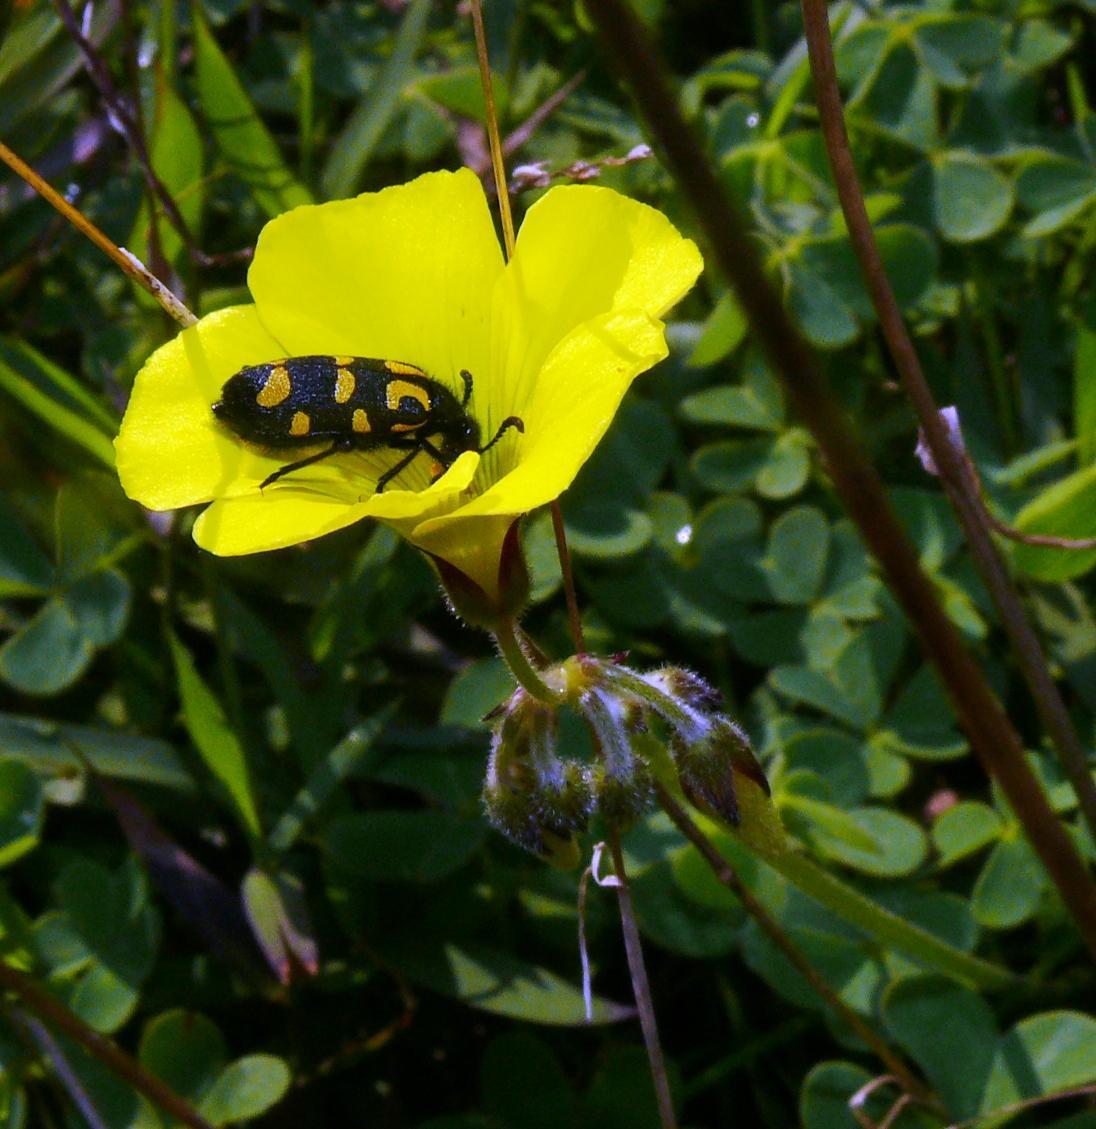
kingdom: Plantae
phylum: Tracheophyta
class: Magnoliopsida
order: Oxalidales
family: Oxalidaceae
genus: Oxalis
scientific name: Oxalis pes-caprae
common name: Bermuda-buttercup
